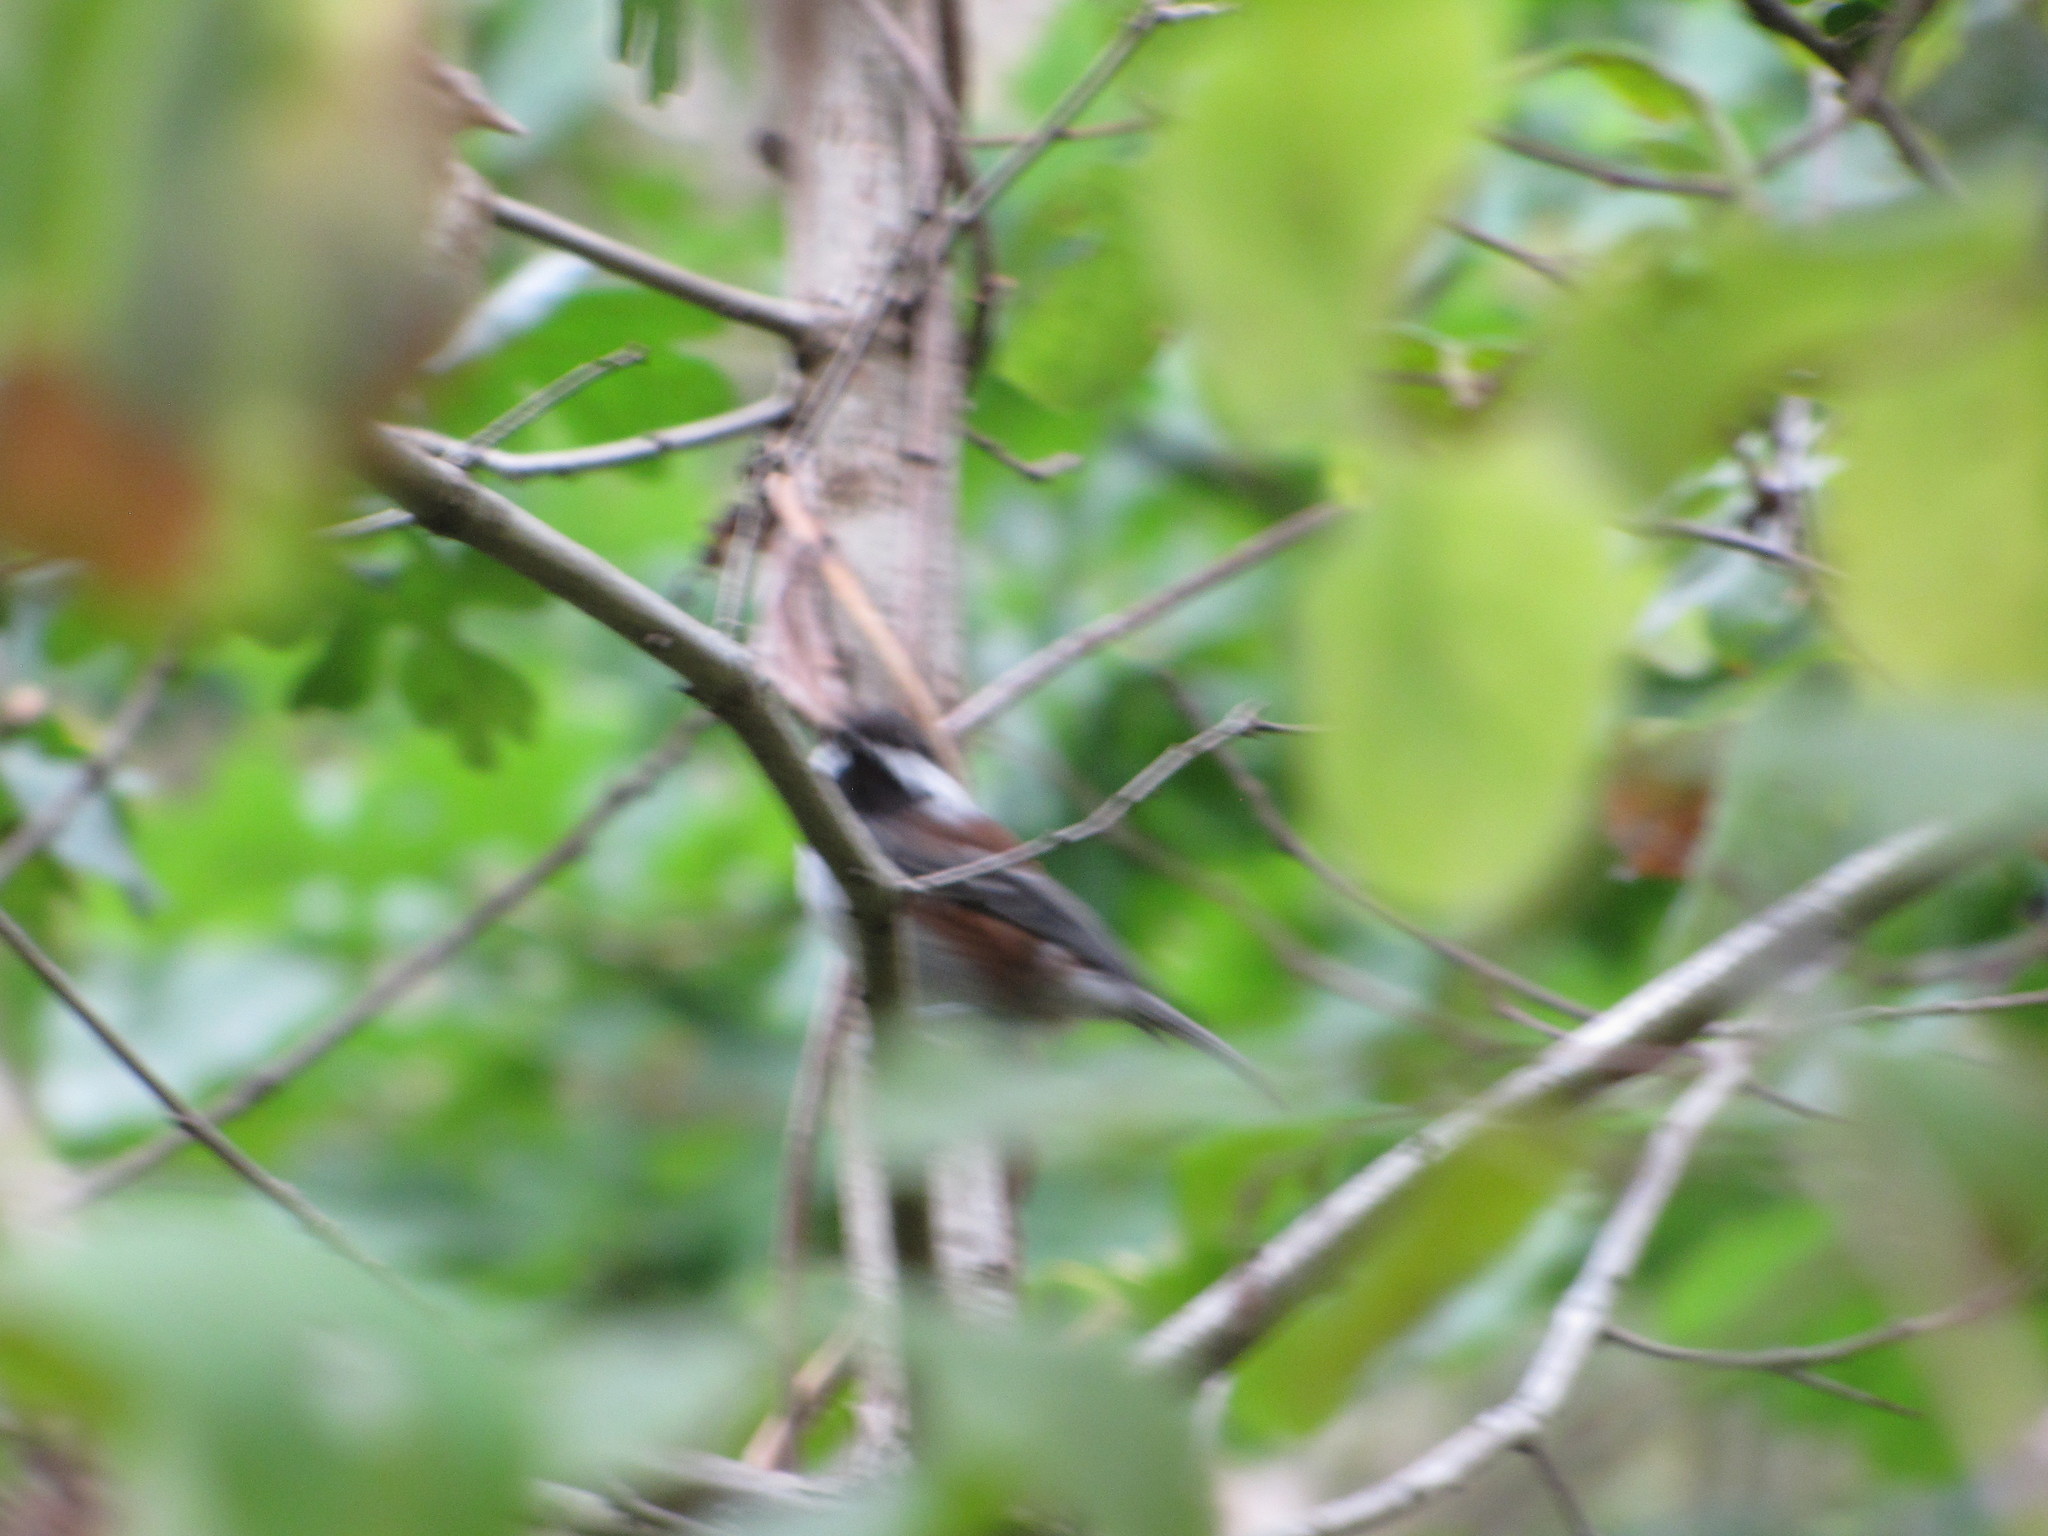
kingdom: Animalia
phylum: Chordata
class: Aves
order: Passeriformes
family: Paridae
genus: Poecile
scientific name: Poecile rufescens
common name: Chestnut-backed chickadee
